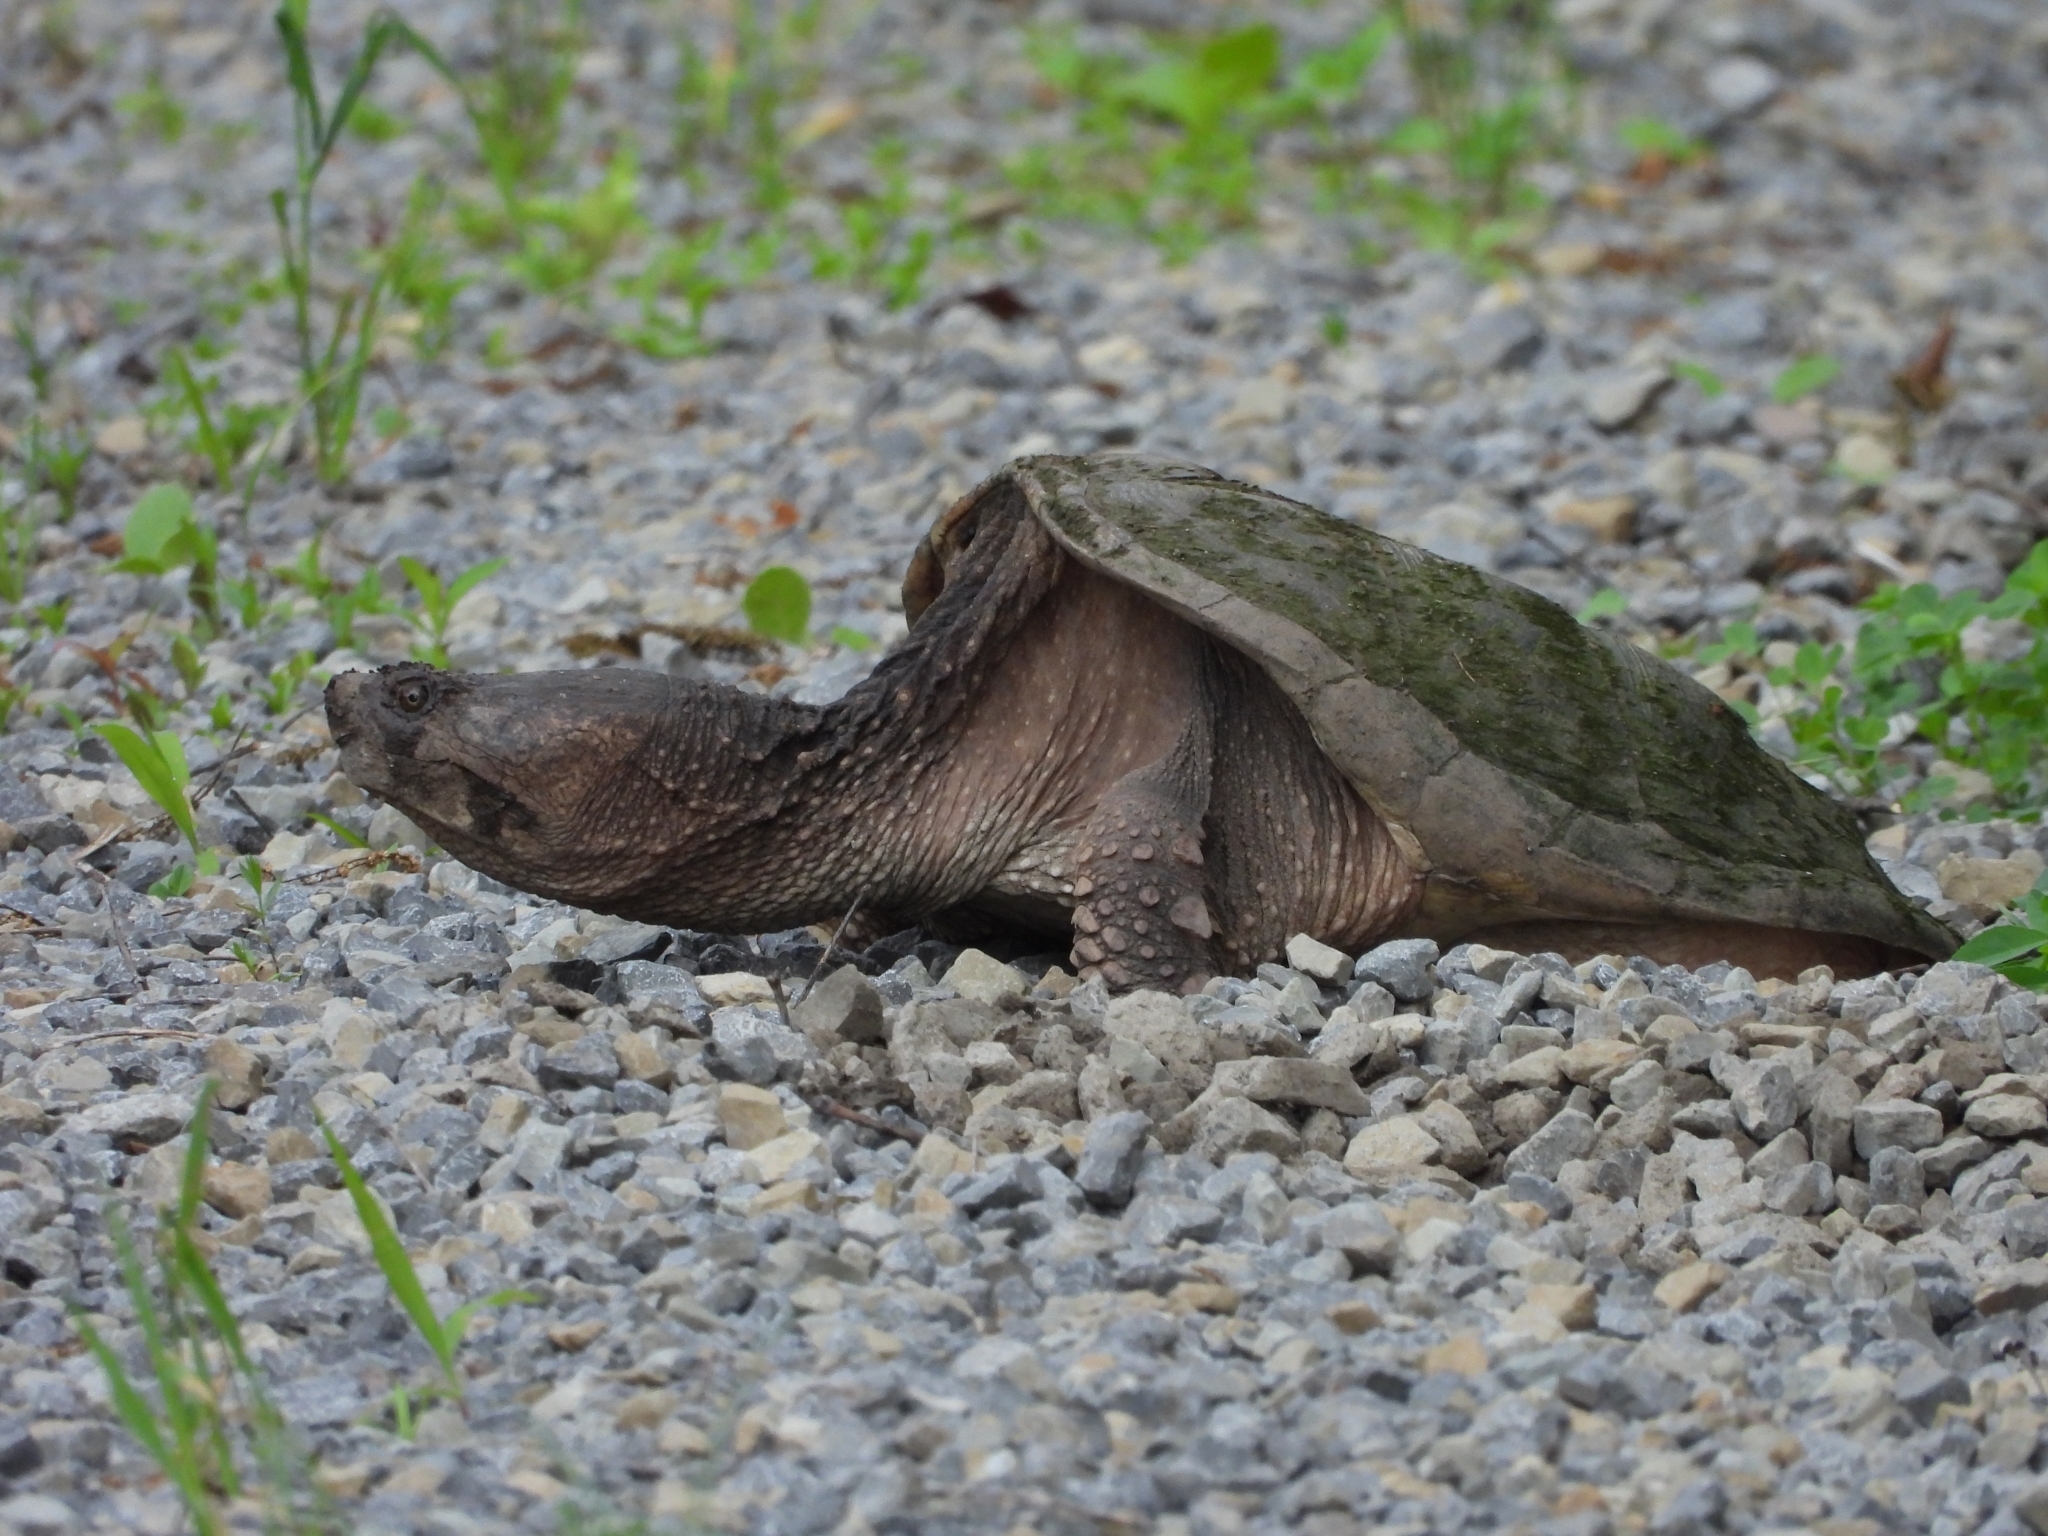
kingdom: Animalia
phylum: Chordata
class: Testudines
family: Chelydridae
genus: Chelydra
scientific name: Chelydra serpentina
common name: Common snapping turtle
